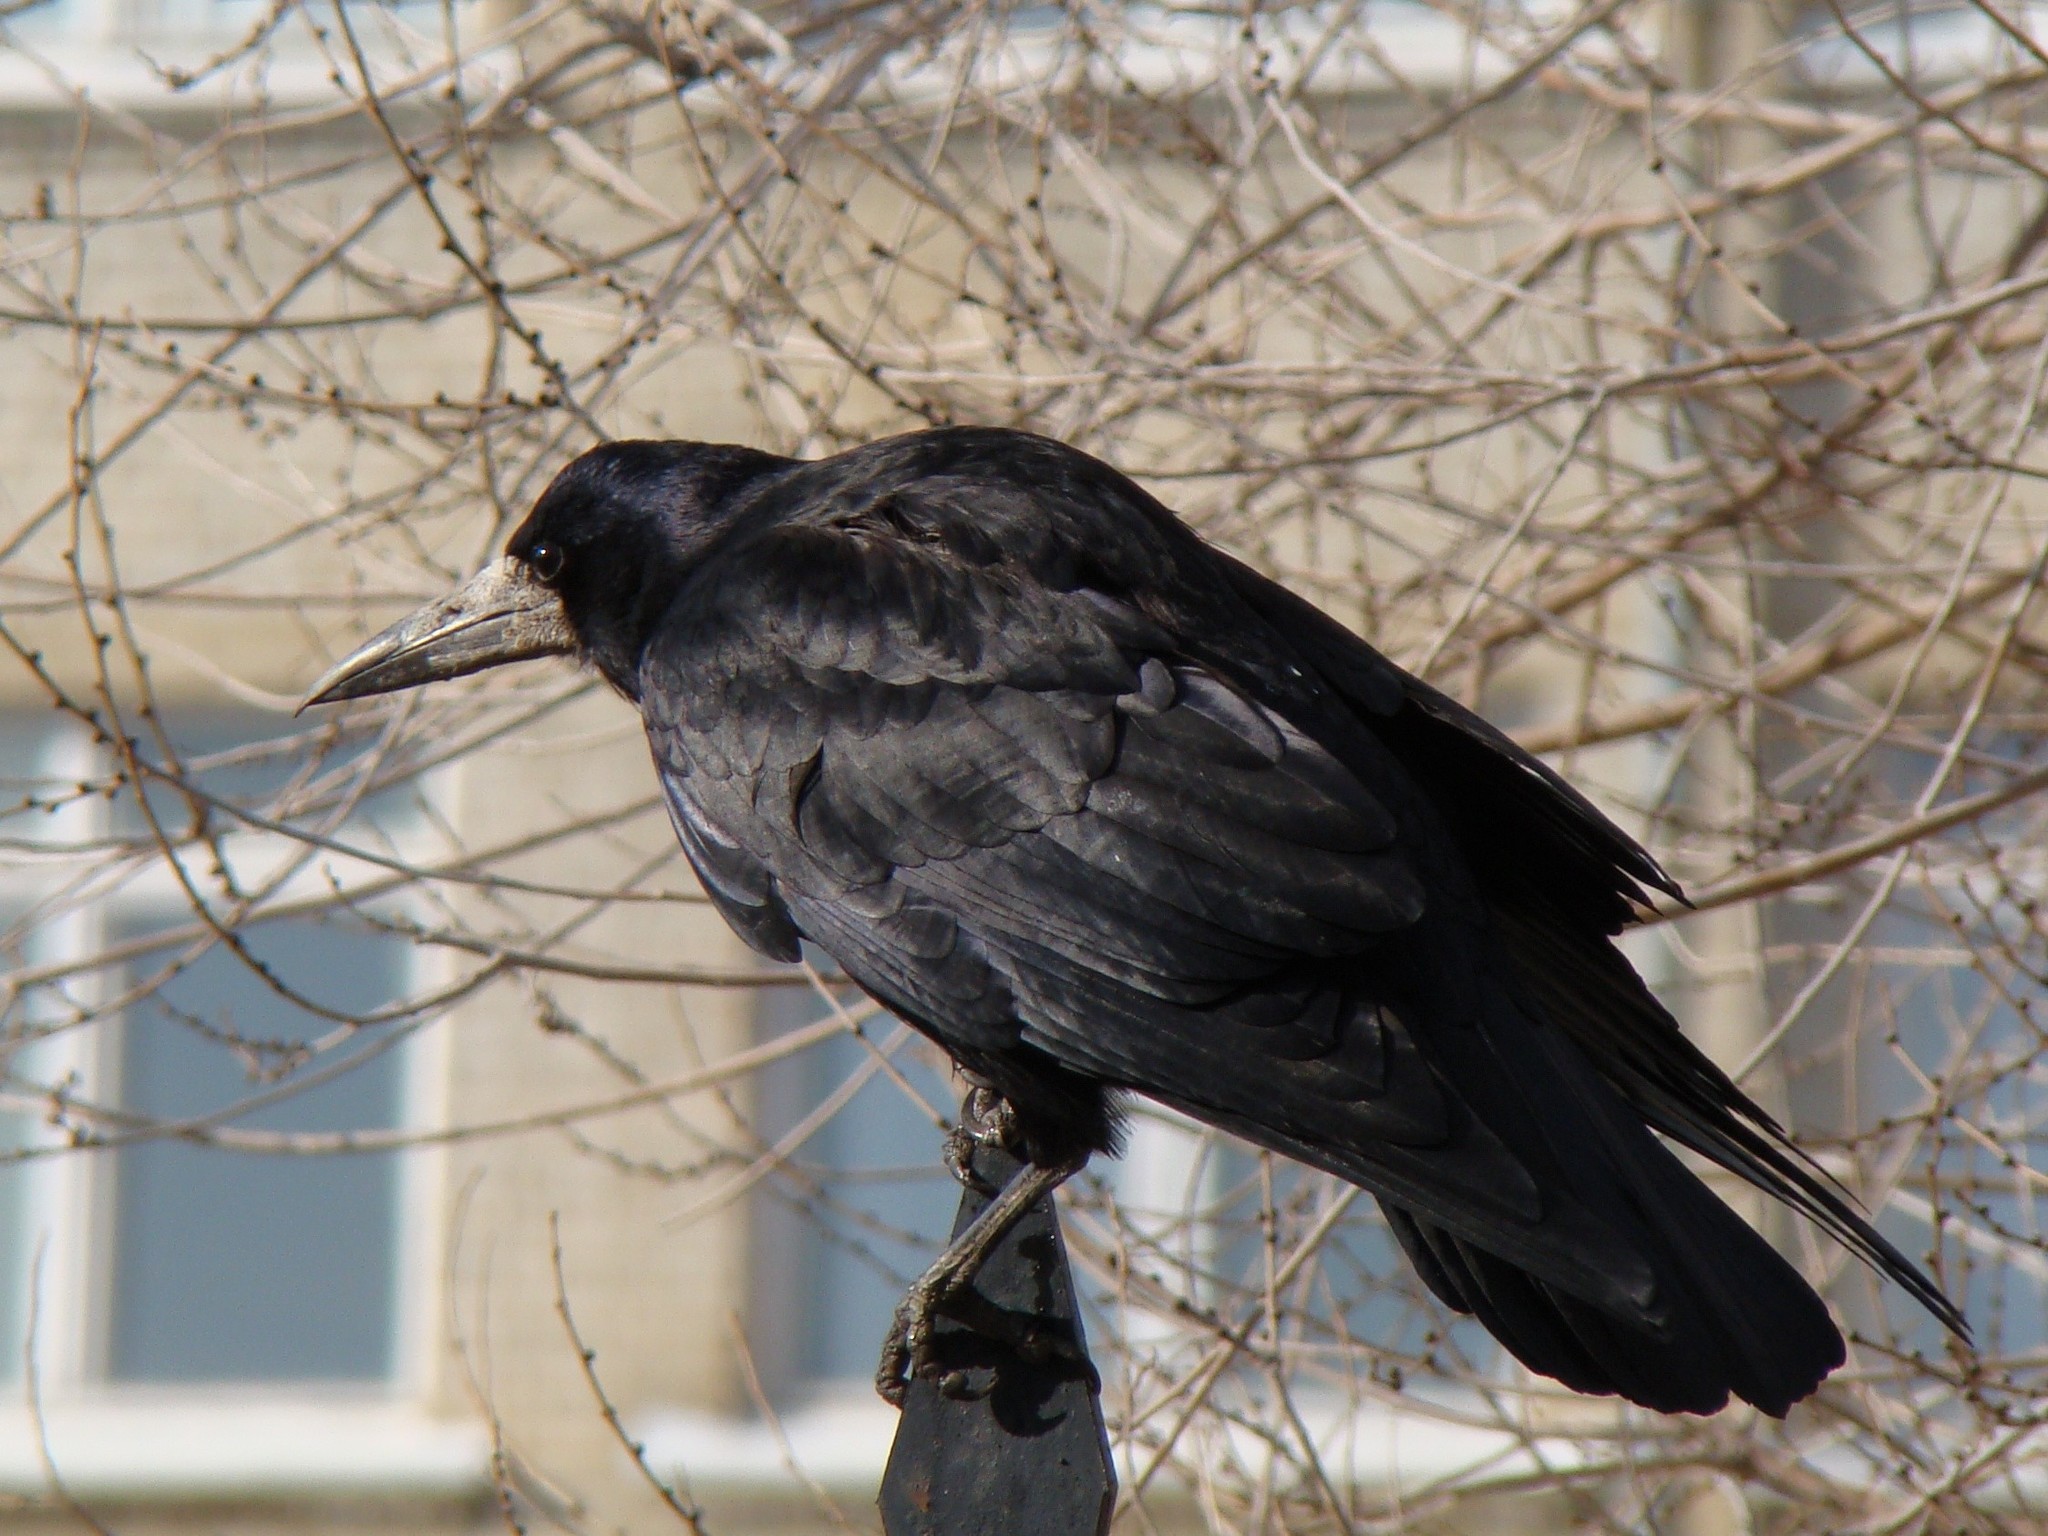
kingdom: Animalia
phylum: Chordata
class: Aves
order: Passeriformes
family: Corvidae
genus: Corvus
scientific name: Corvus frugilegus
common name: Rook
